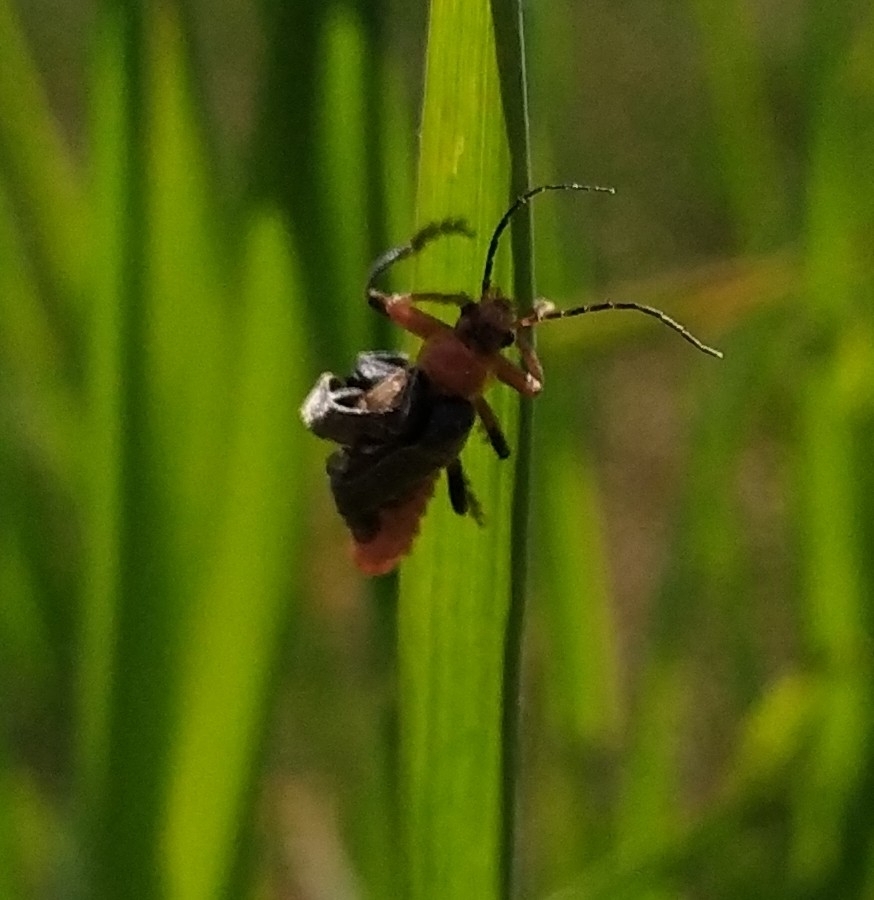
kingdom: Animalia
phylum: Arthropoda
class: Insecta
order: Coleoptera
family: Cantharidae
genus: Cantharis
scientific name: Cantharis livida
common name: Livid soldier beetle
